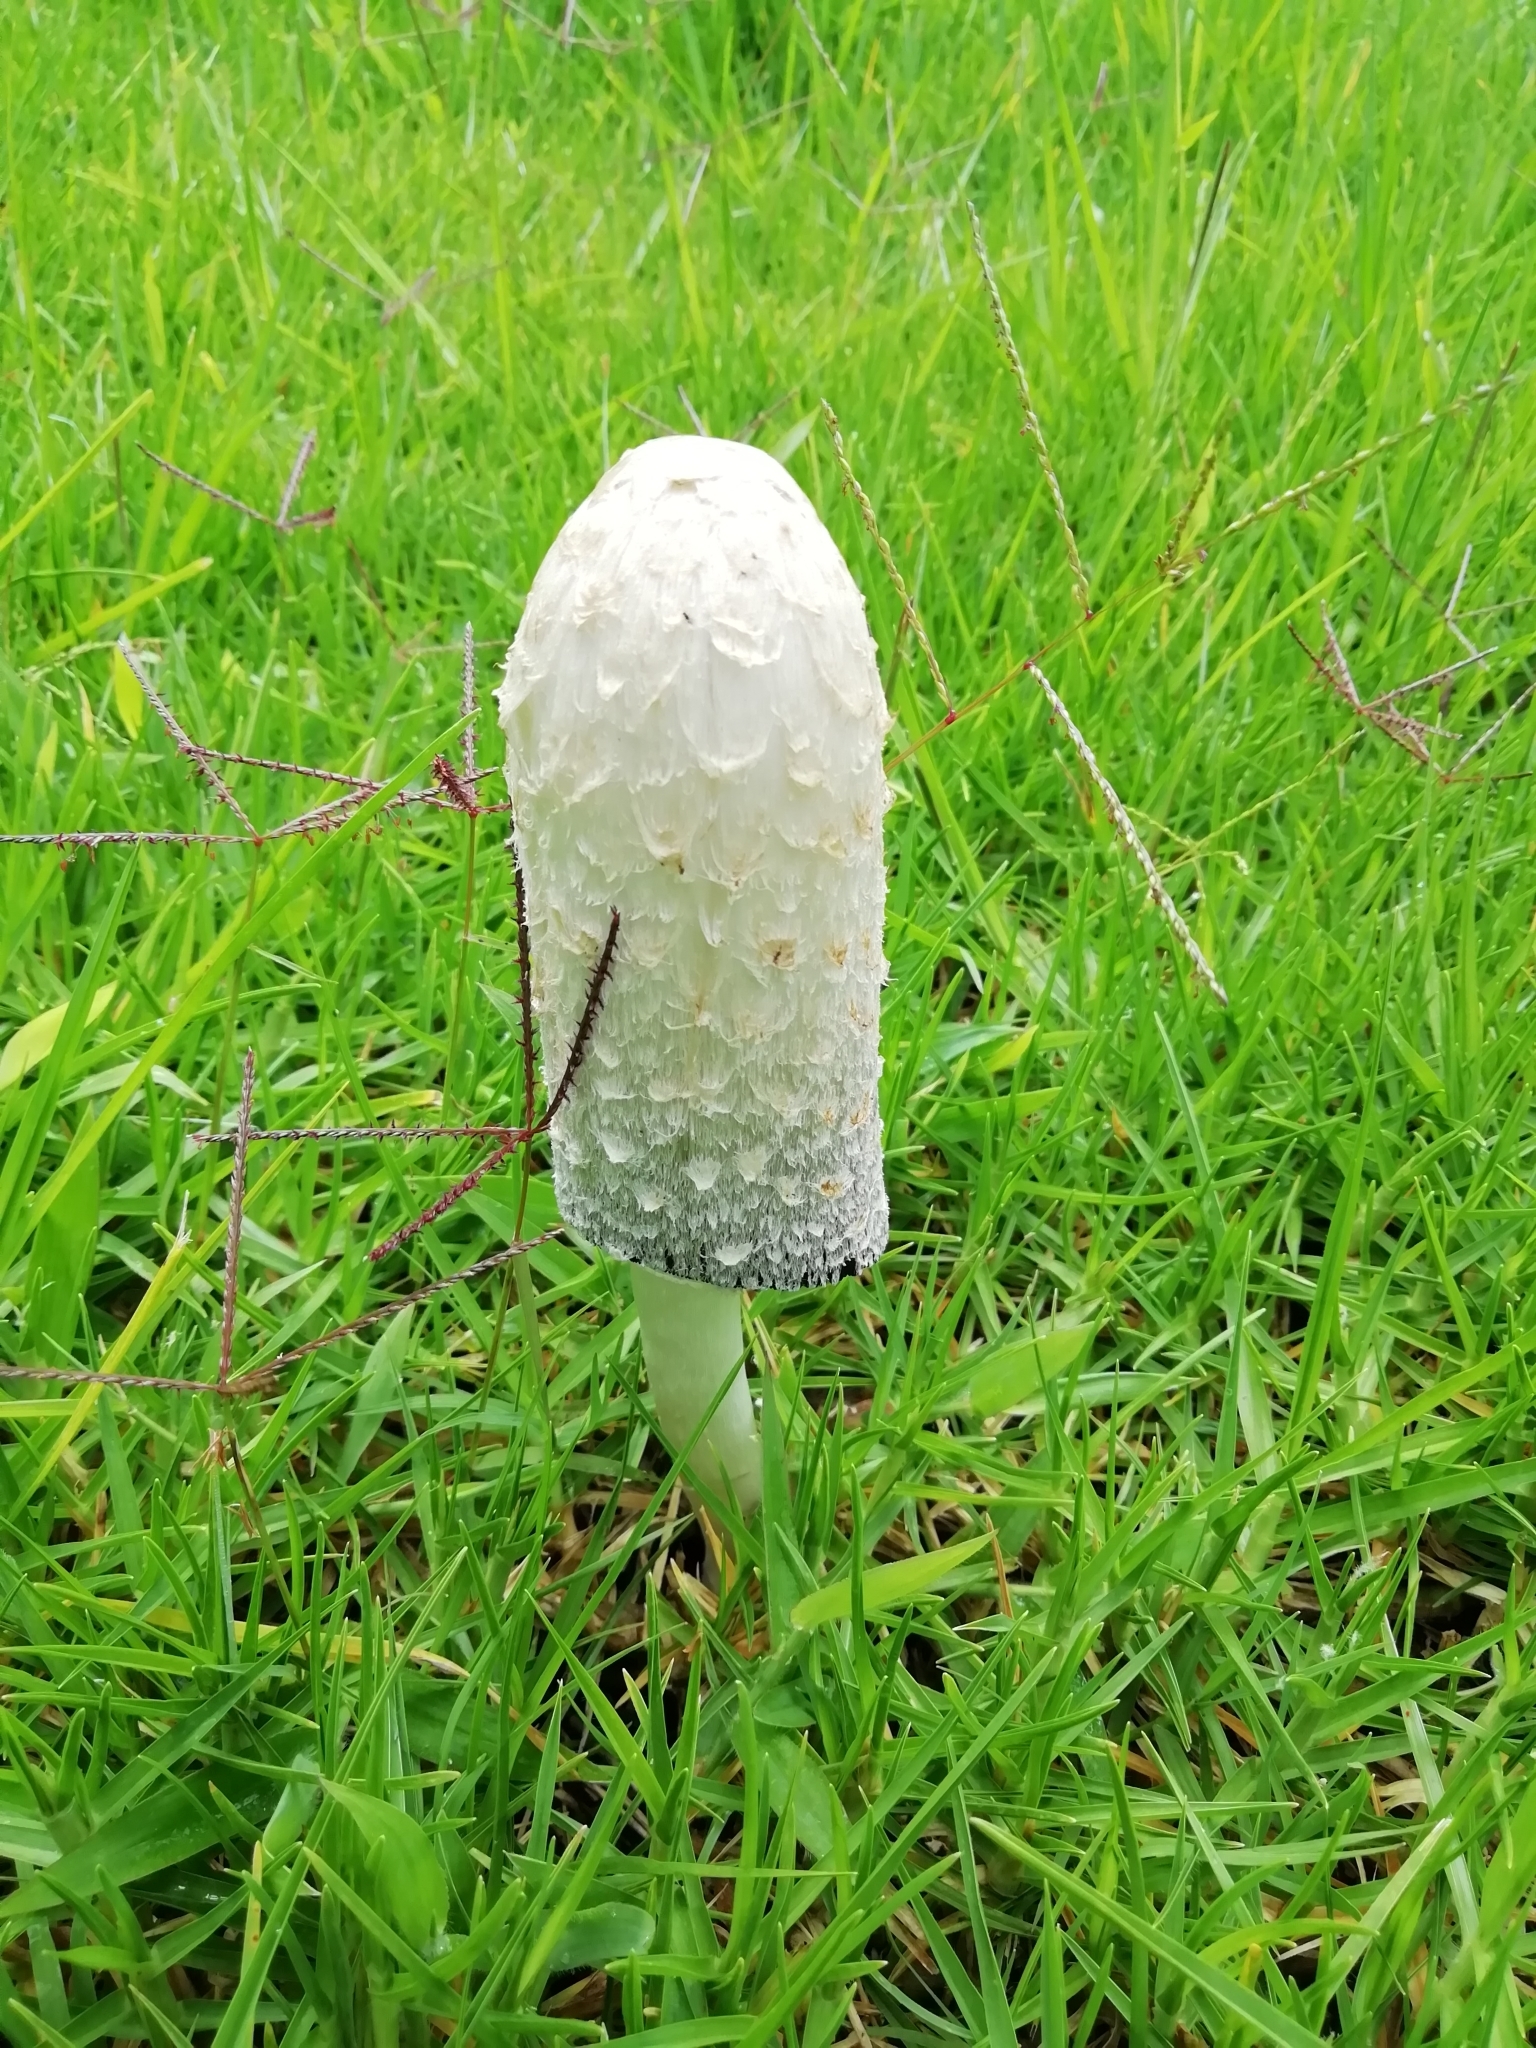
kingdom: Fungi
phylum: Basidiomycota
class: Agaricomycetes
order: Agaricales
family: Agaricaceae
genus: Coprinus
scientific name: Coprinus comatus
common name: Lawyer's wig
